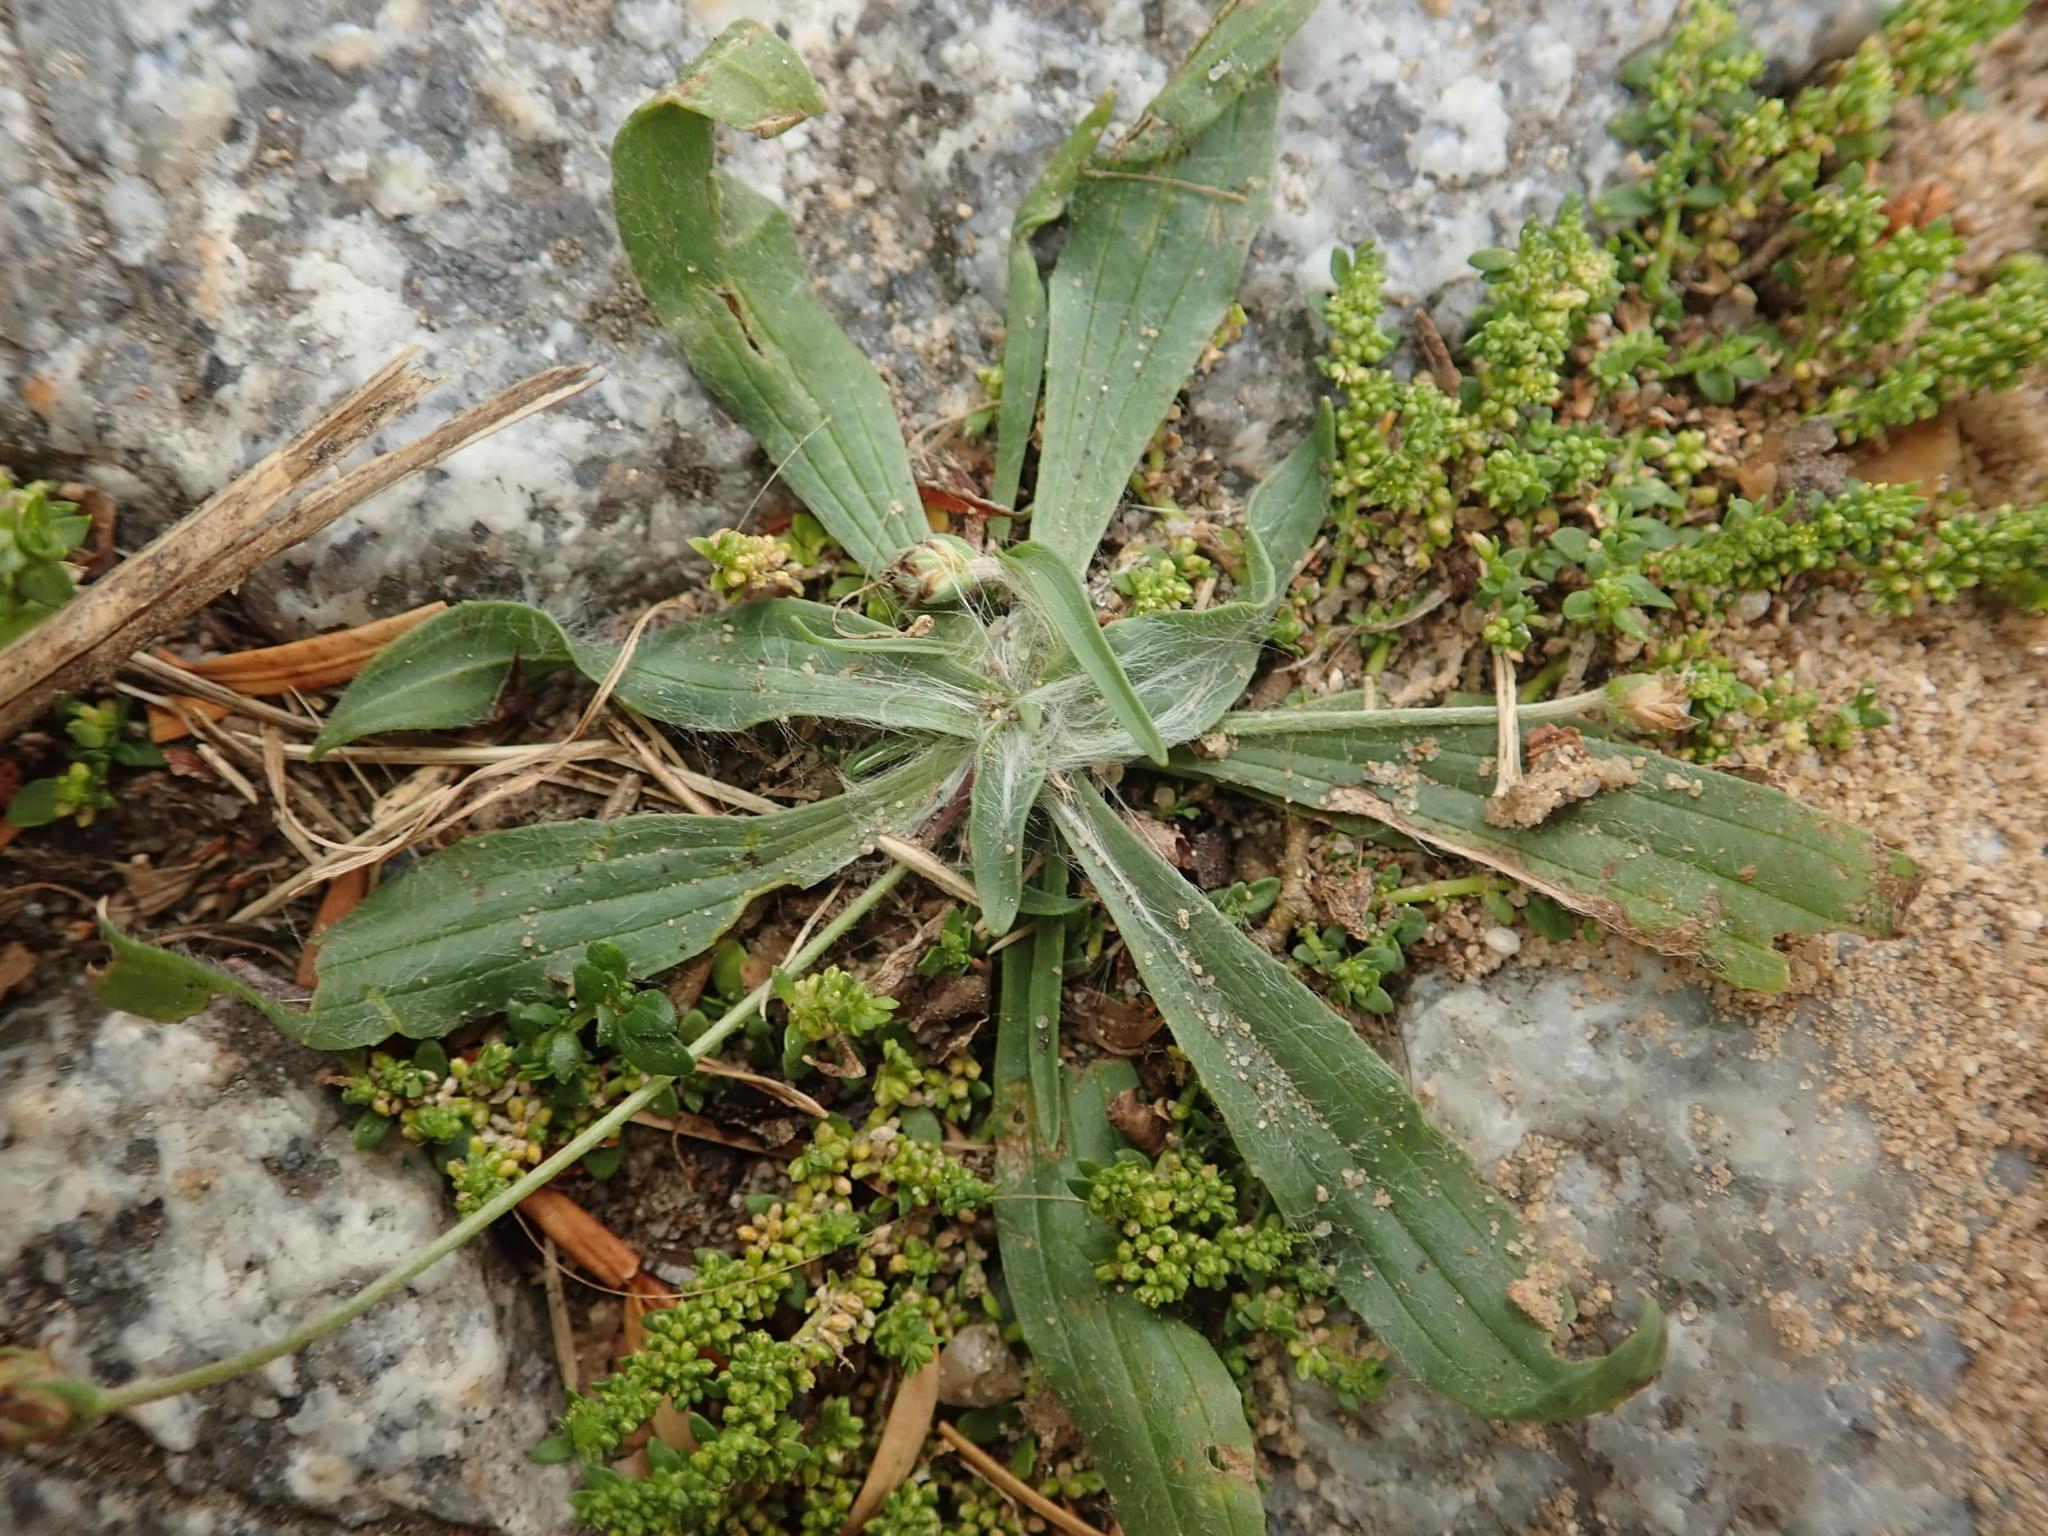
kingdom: Plantae
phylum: Tracheophyta
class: Magnoliopsida
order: Lamiales
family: Plantaginaceae
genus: Plantago
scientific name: Plantago lanceolata
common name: Ribwort plantain
